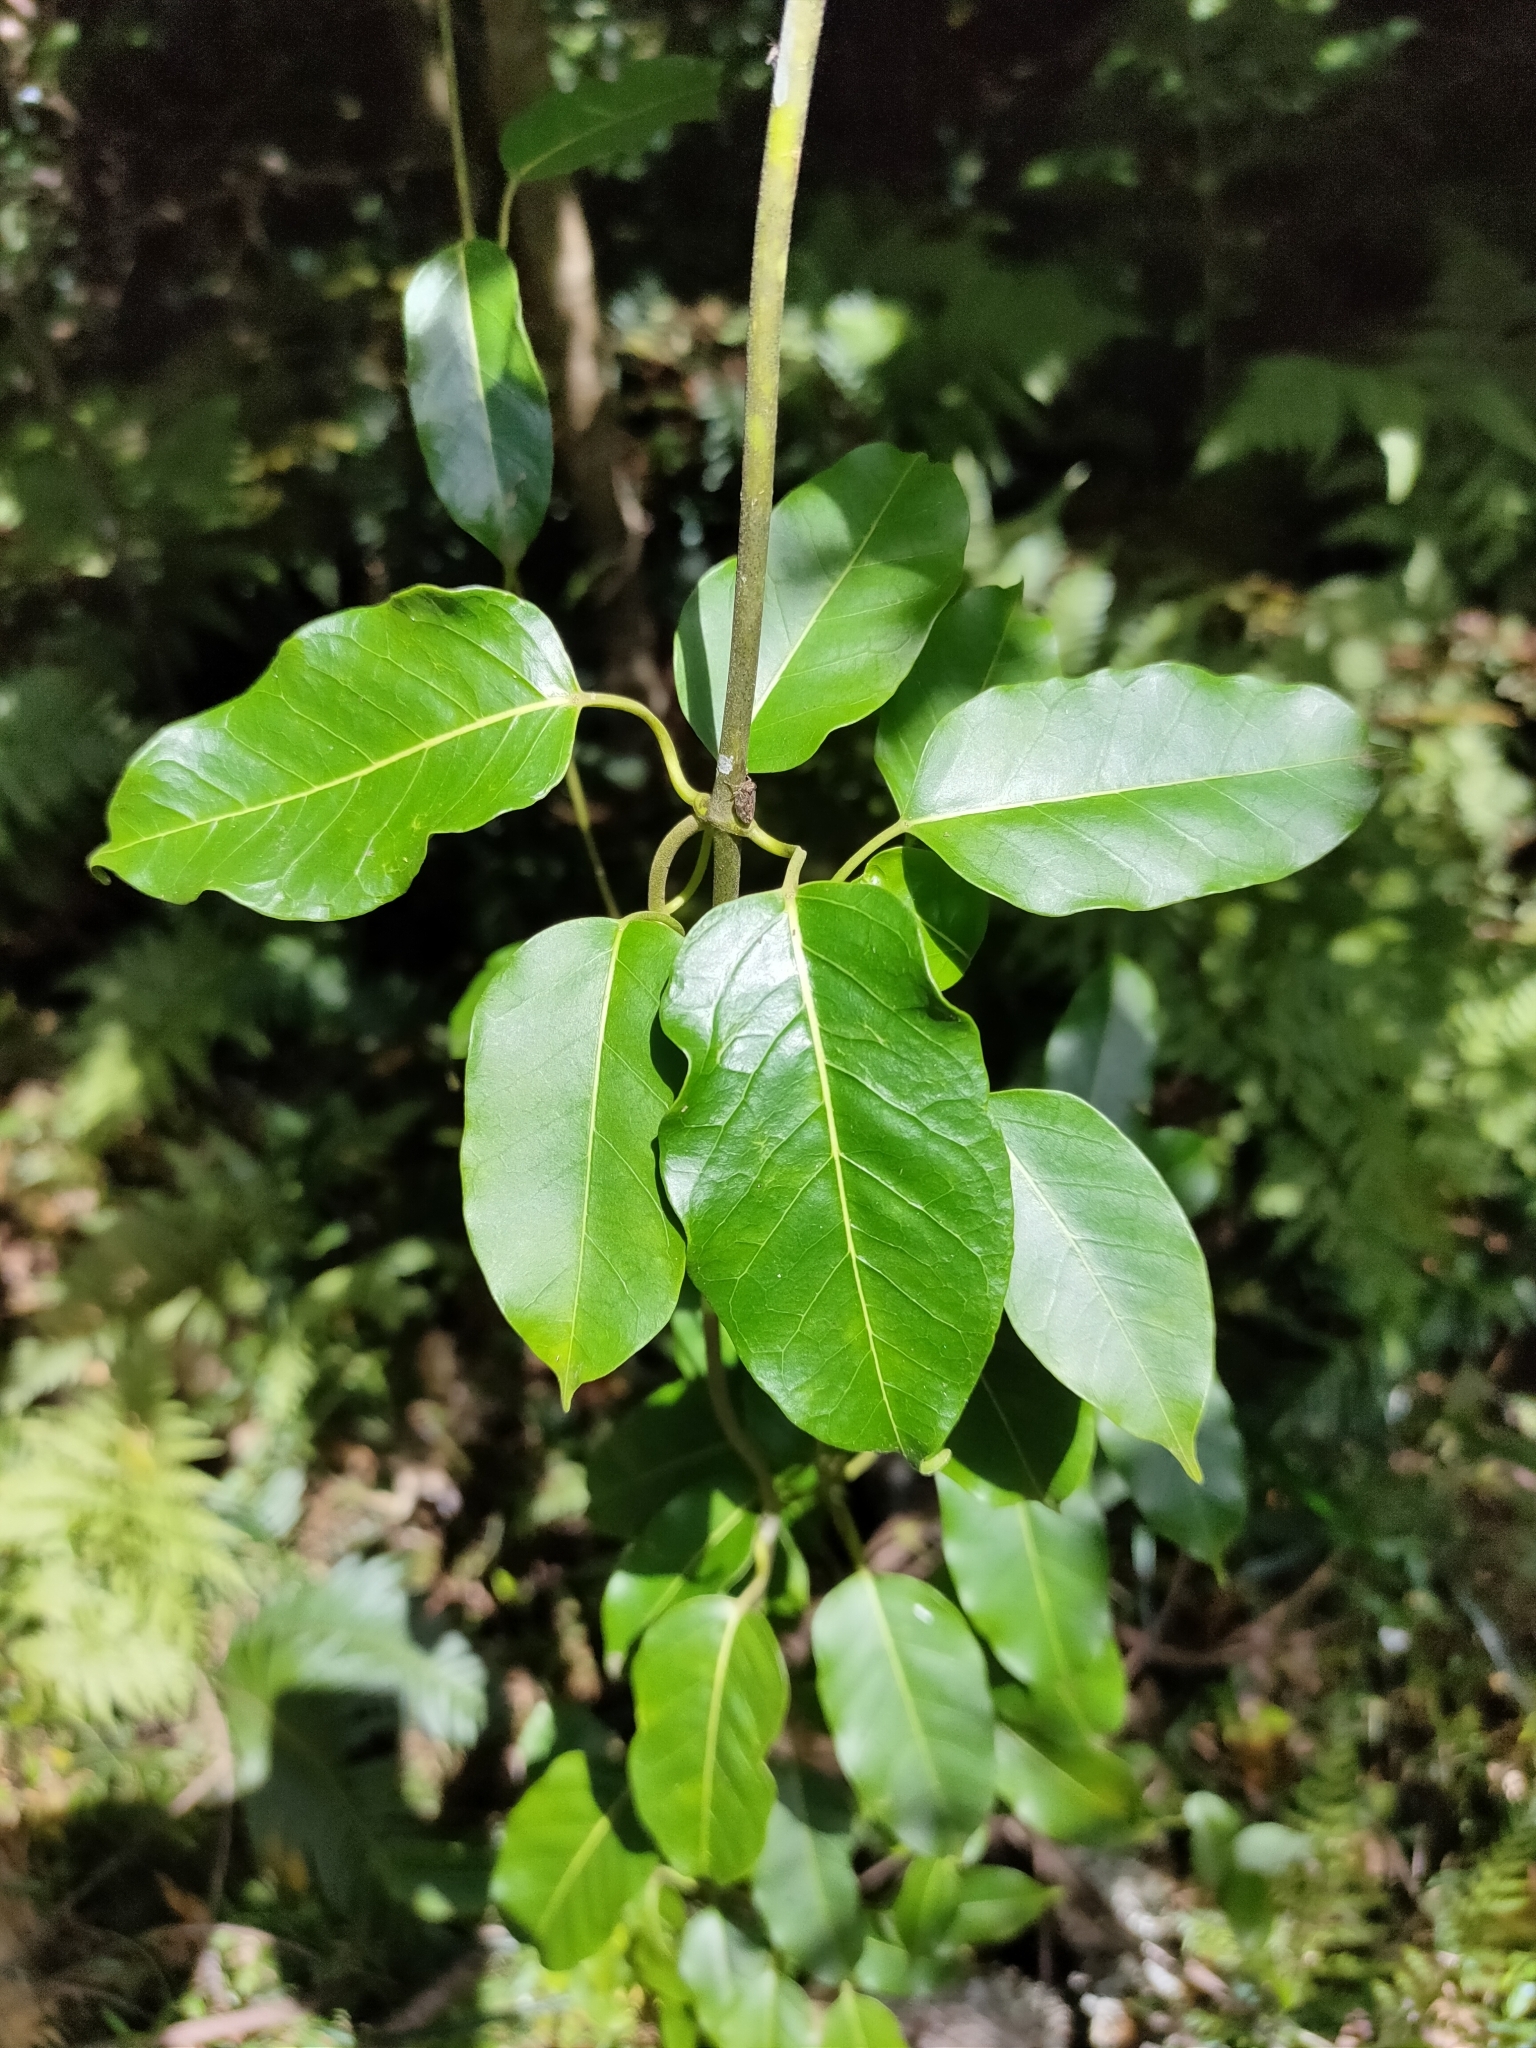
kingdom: Plantae
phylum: Tracheophyta
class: Magnoliopsida
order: Gentianales
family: Apocynaceae
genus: Leichhardtia
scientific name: Leichhardtia rostrata
